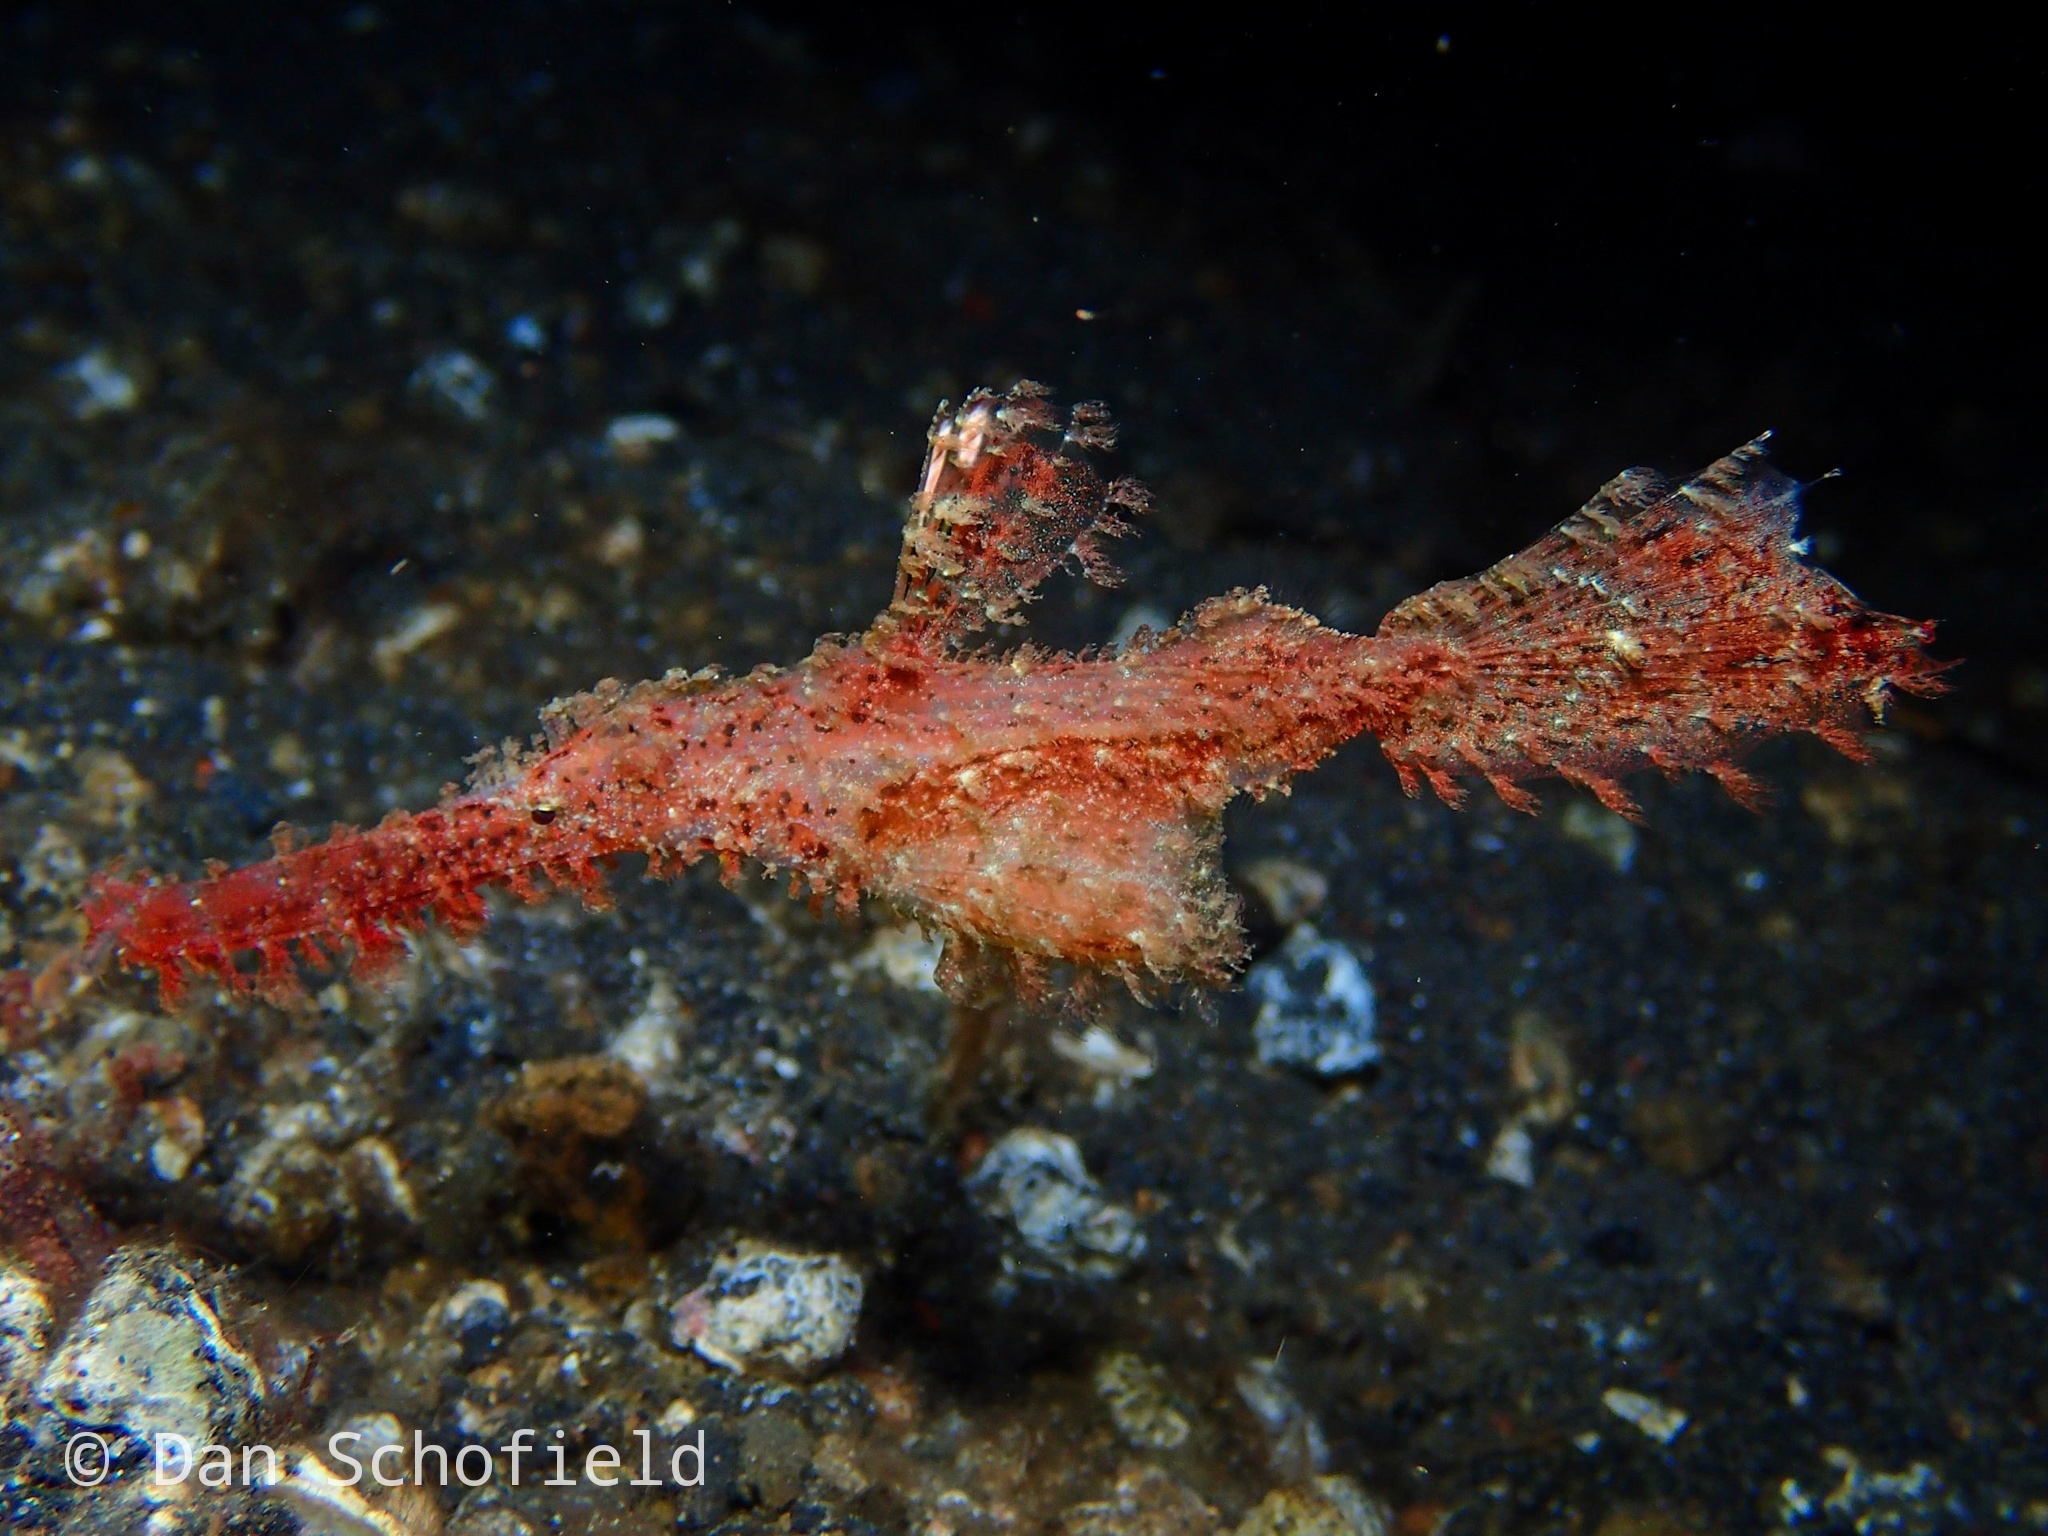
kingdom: Animalia
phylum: Chordata
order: Syngnathiformes
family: Solenostomidae
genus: Solenostomus
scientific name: Solenostomus paegnius
